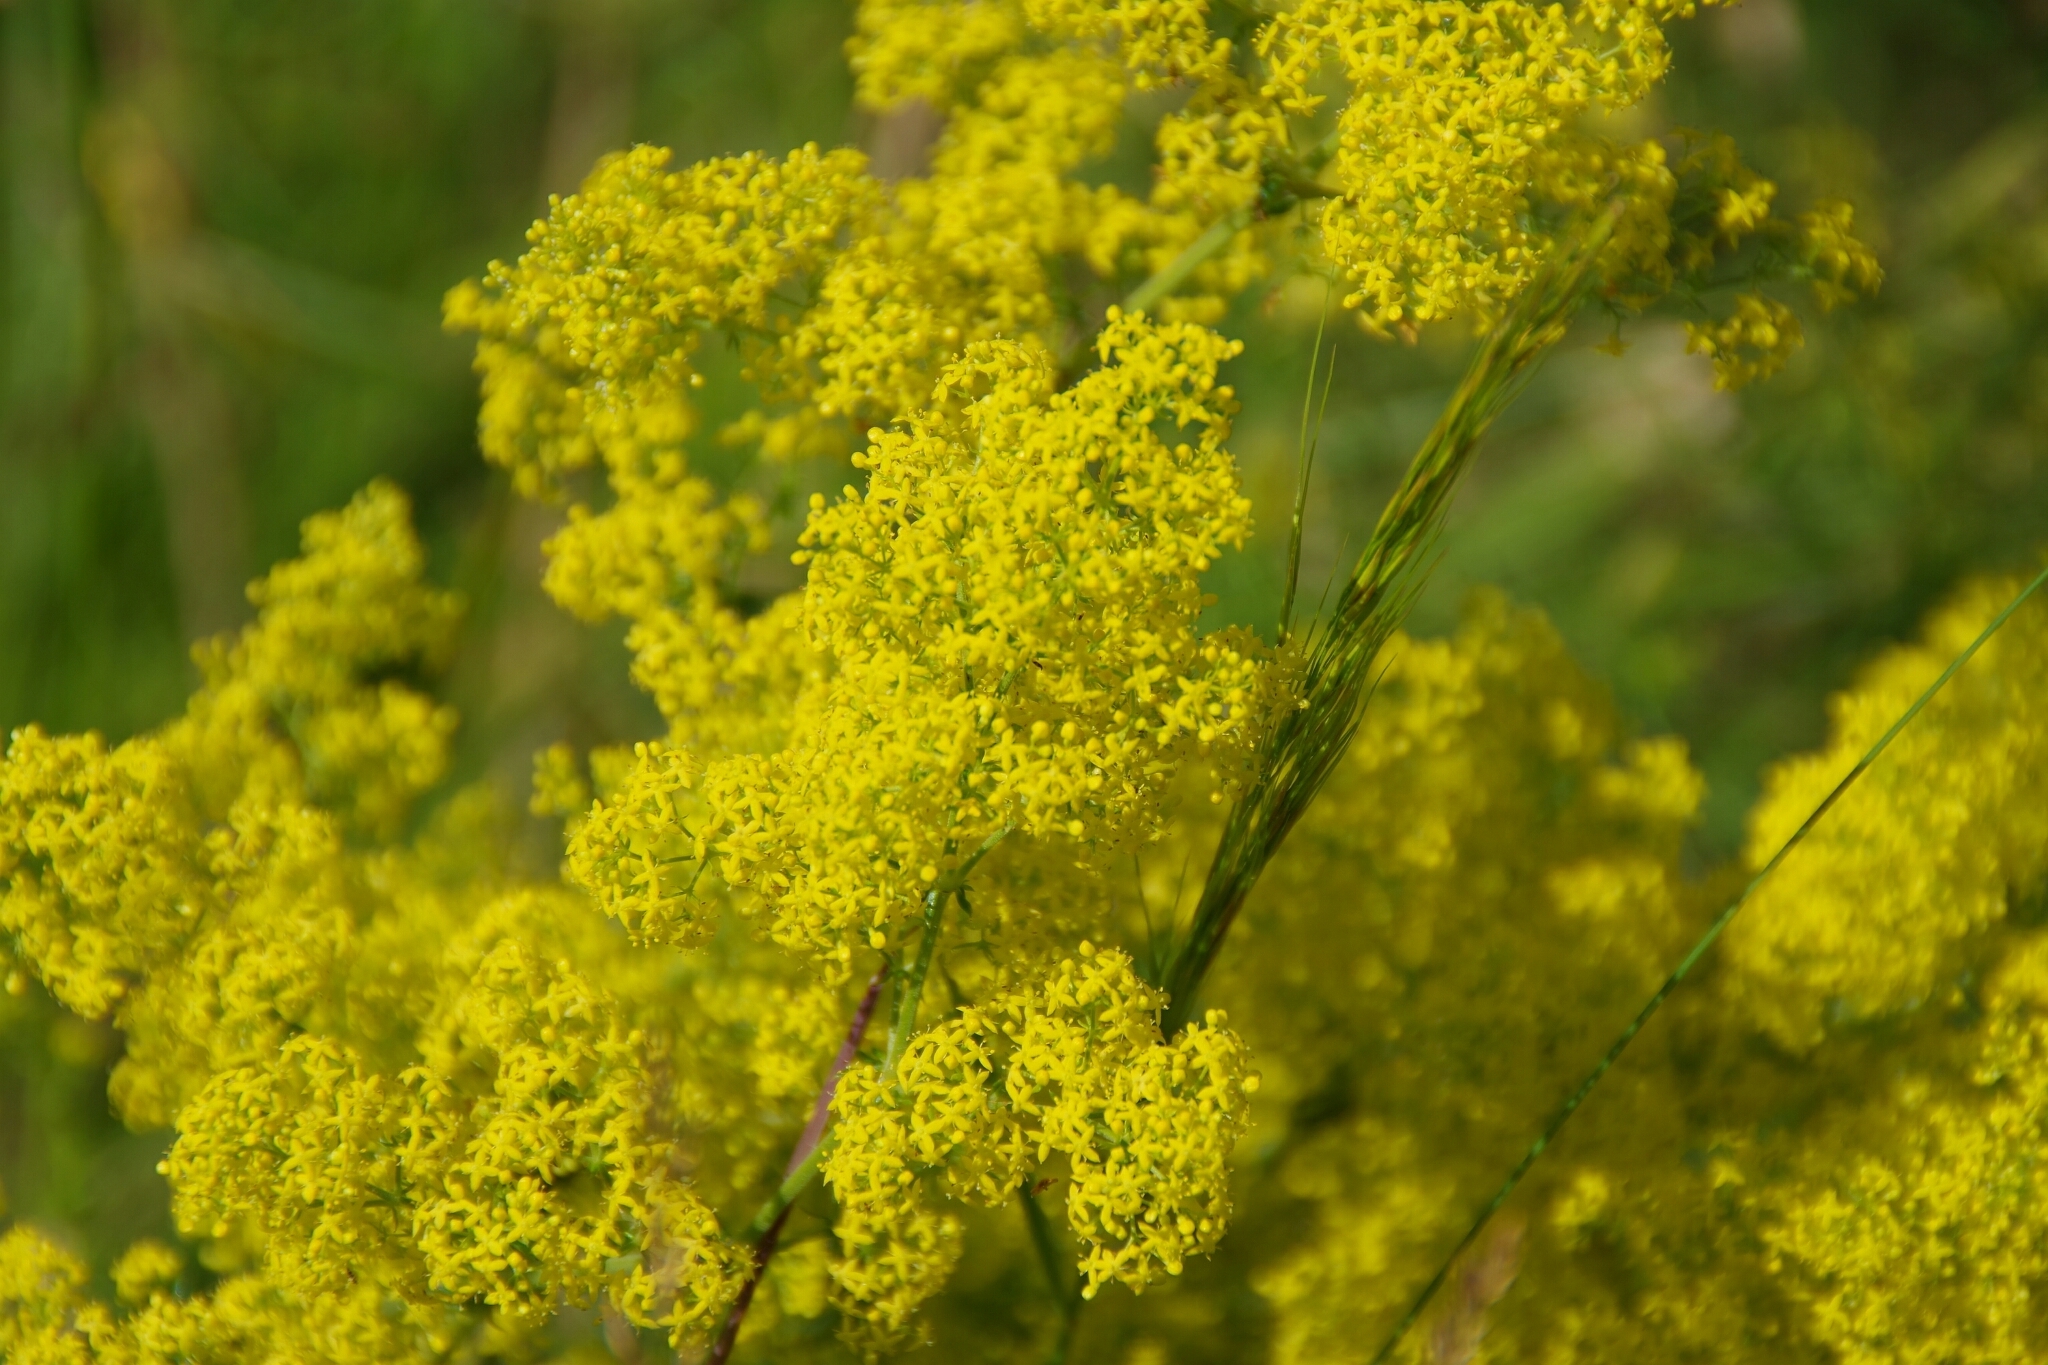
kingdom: Plantae
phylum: Tracheophyta
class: Magnoliopsida
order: Gentianales
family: Rubiaceae
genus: Galium
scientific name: Galium verum
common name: Lady's bedstraw
